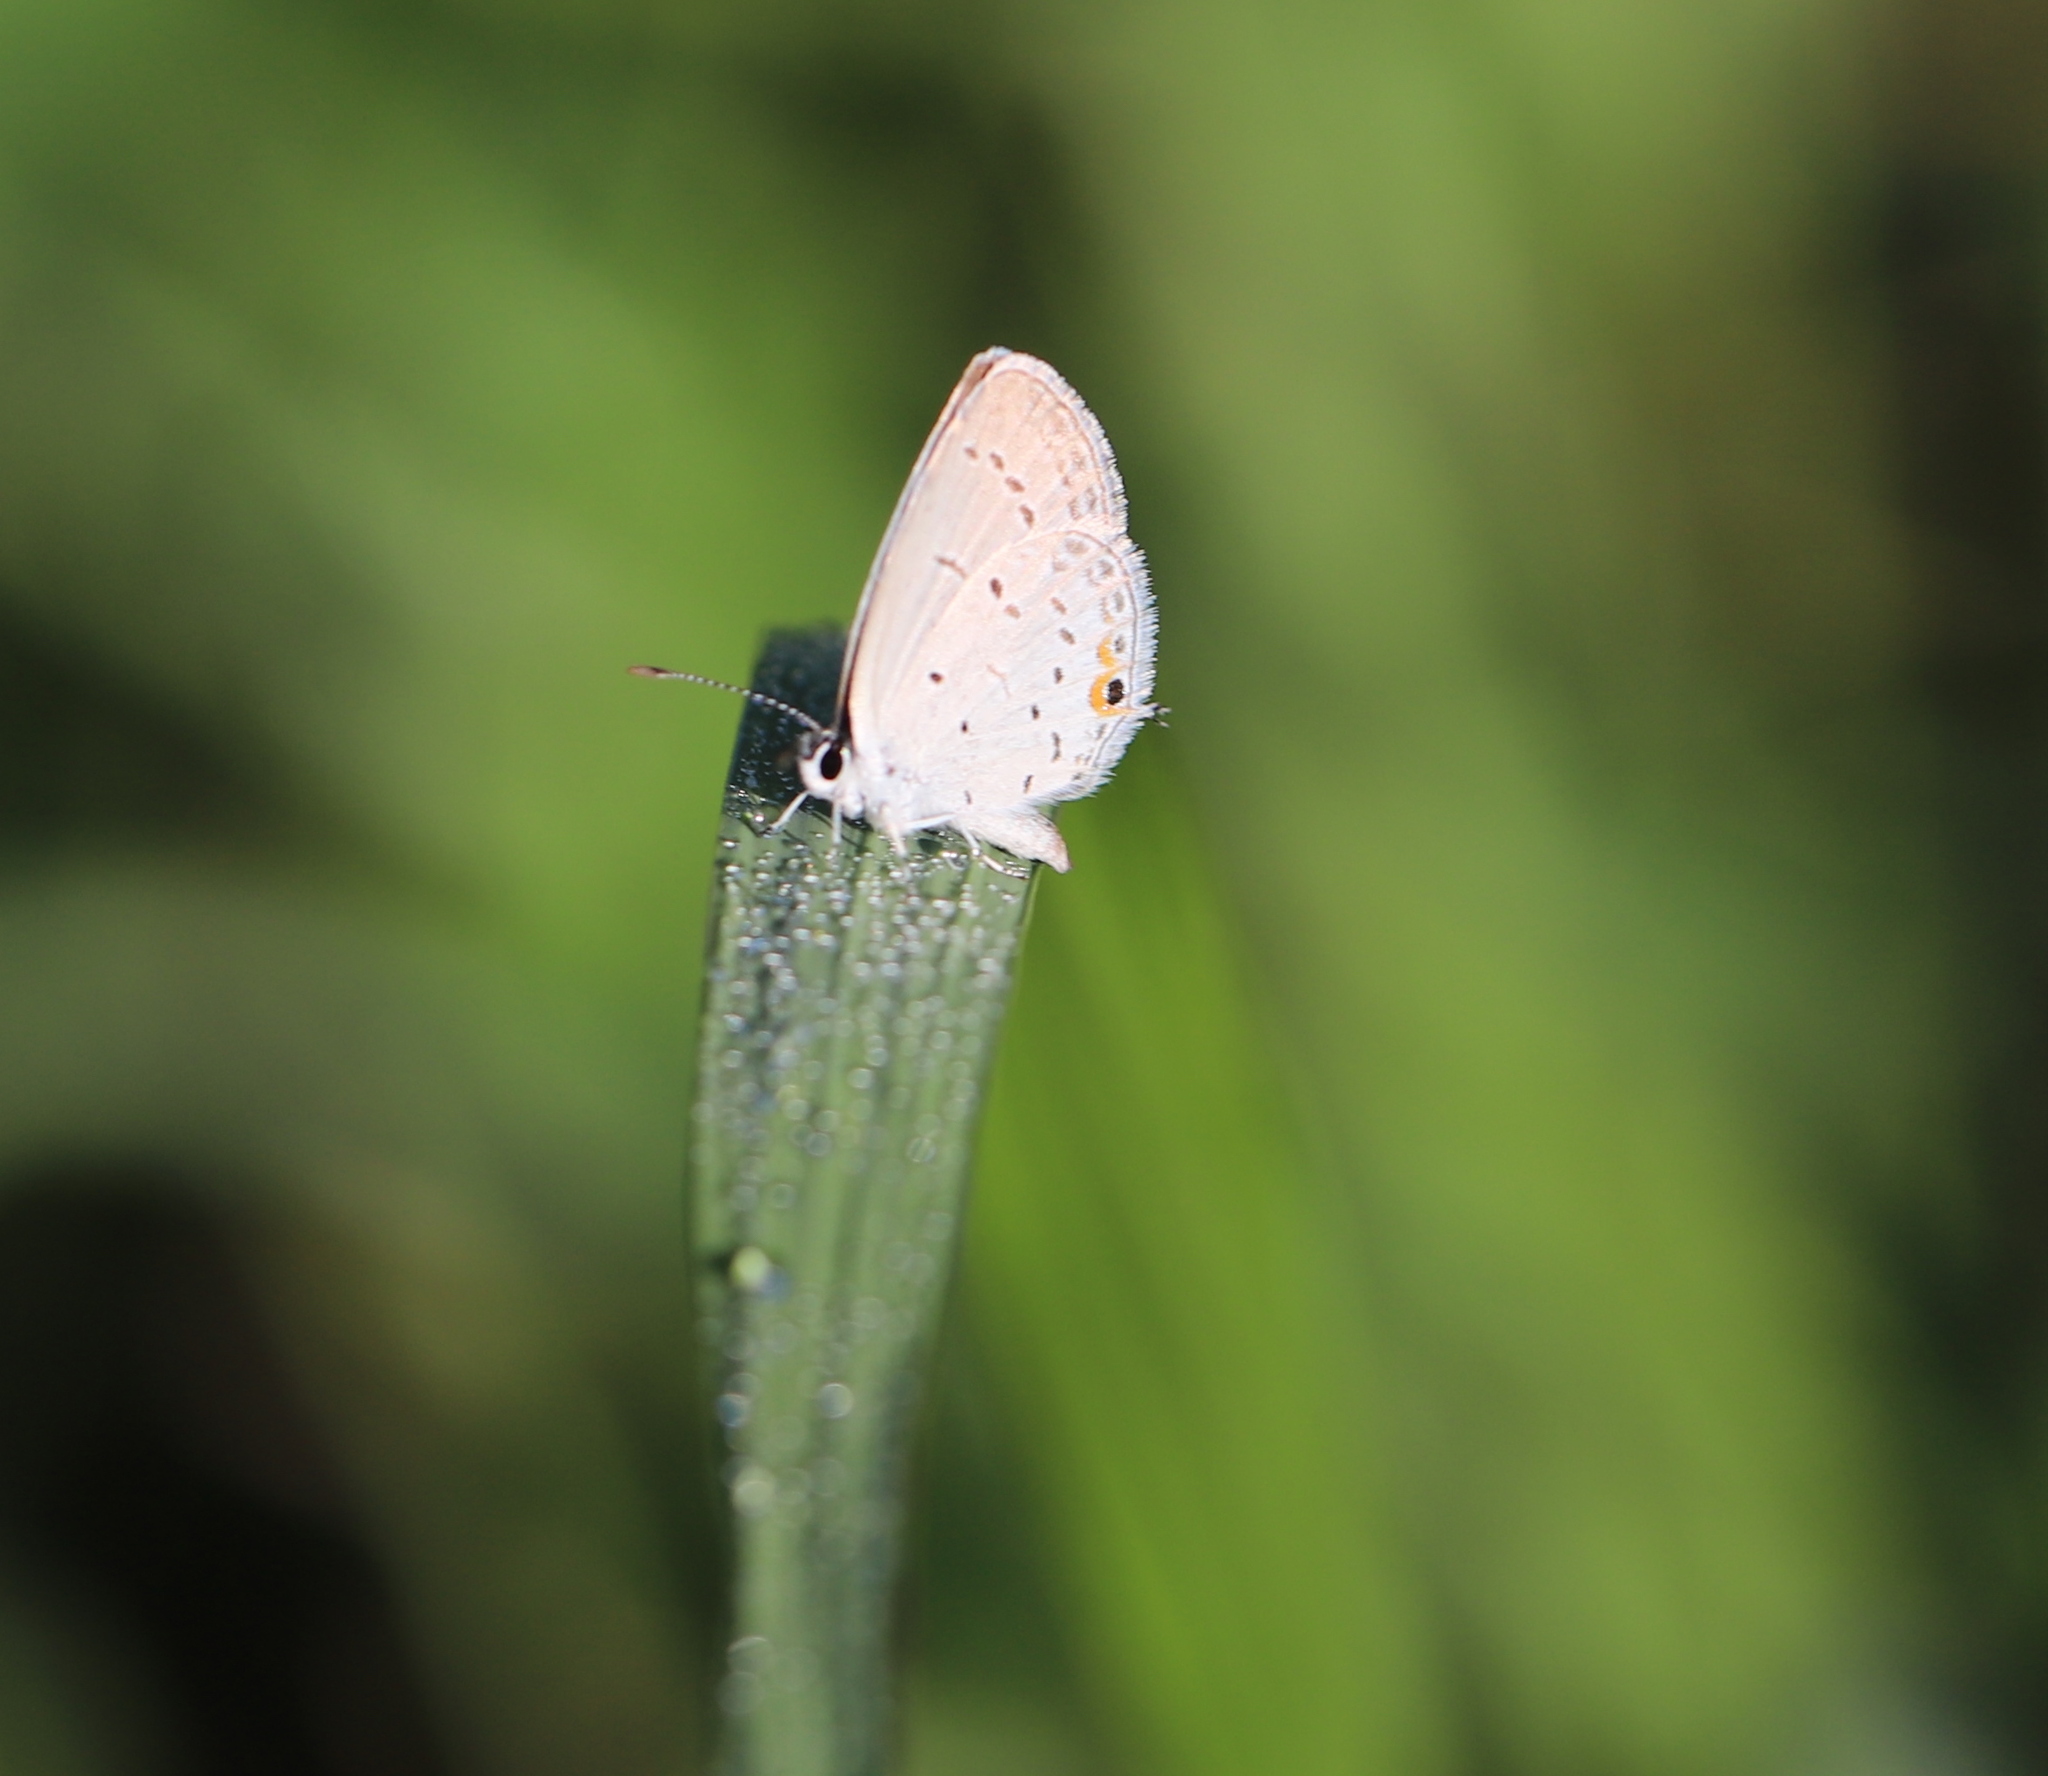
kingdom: Animalia
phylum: Arthropoda
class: Insecta
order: Lepidoptera
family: Lycaenidae
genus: Elkalyce
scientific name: Elkalyce comyntas
